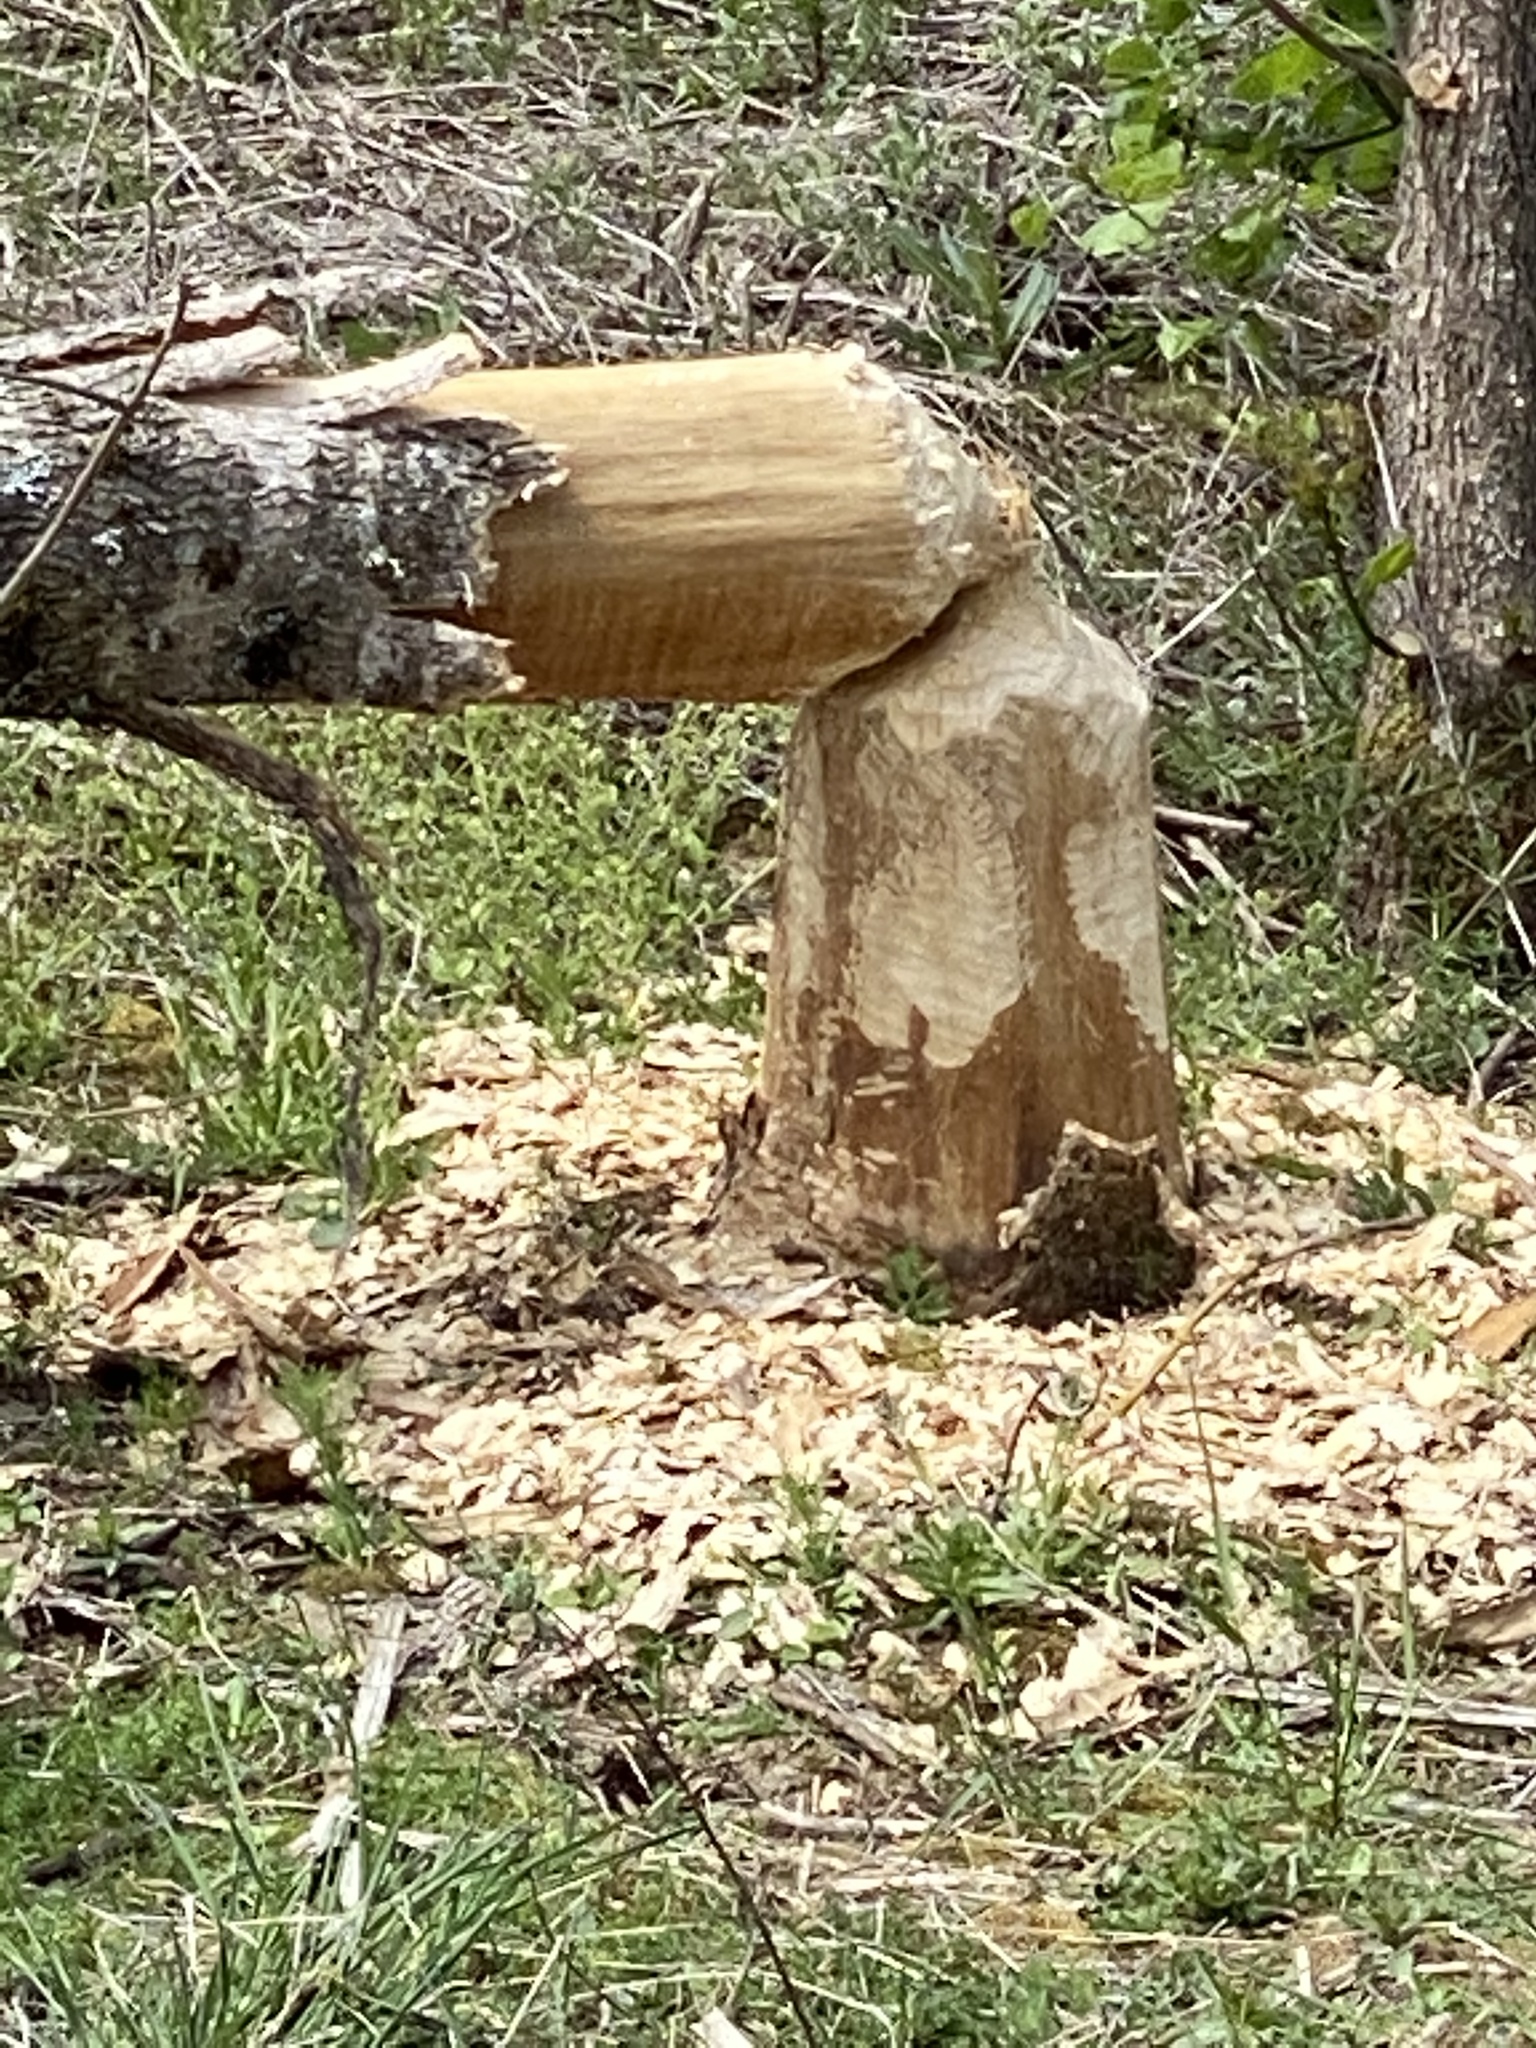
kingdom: Animalia
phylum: Chordata
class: Mammalia
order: Rodentia
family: Castoridae
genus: Castor
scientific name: Castor canadensis
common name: American beaver
